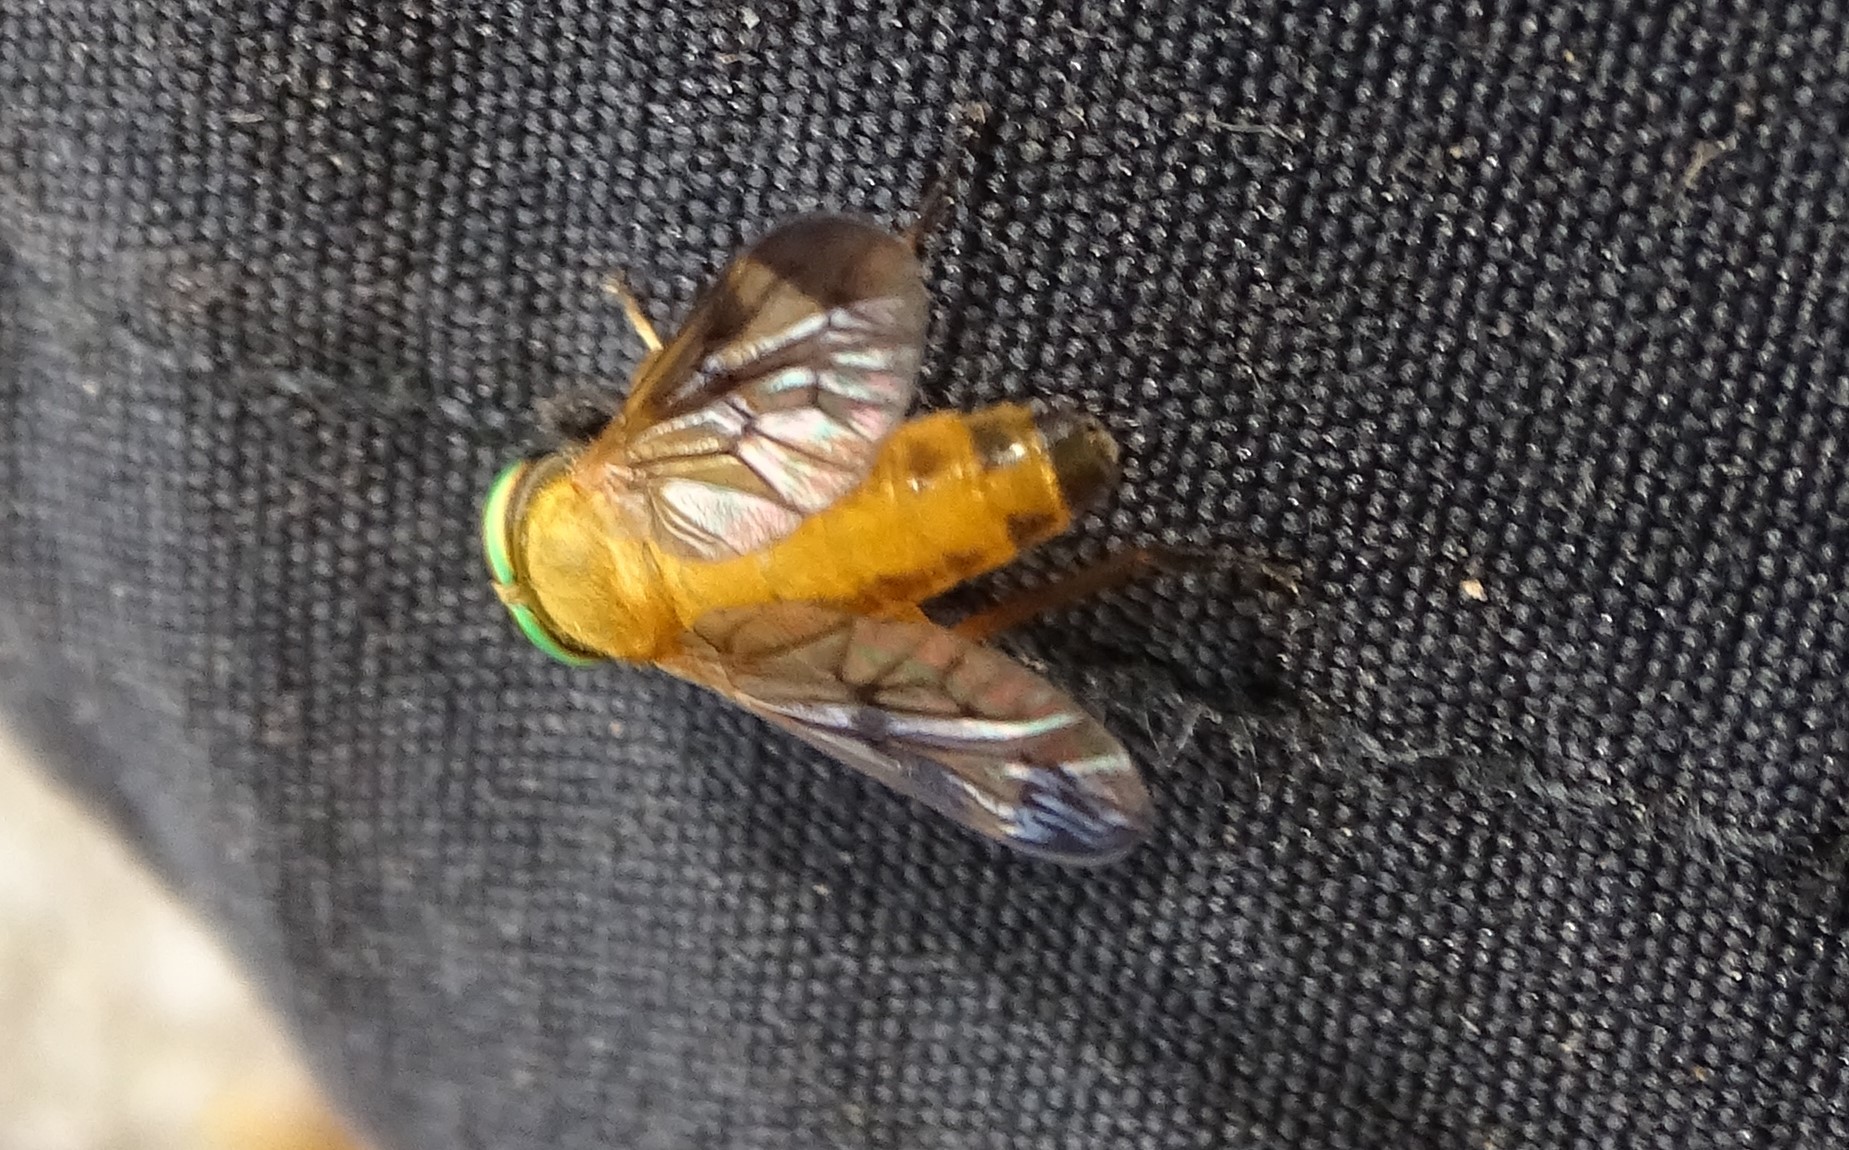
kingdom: Animalia
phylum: Arthropoda
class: Insecta
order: Diptera
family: Tabanidae
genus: Diachlorus
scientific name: Diachlorus ferrugatus
